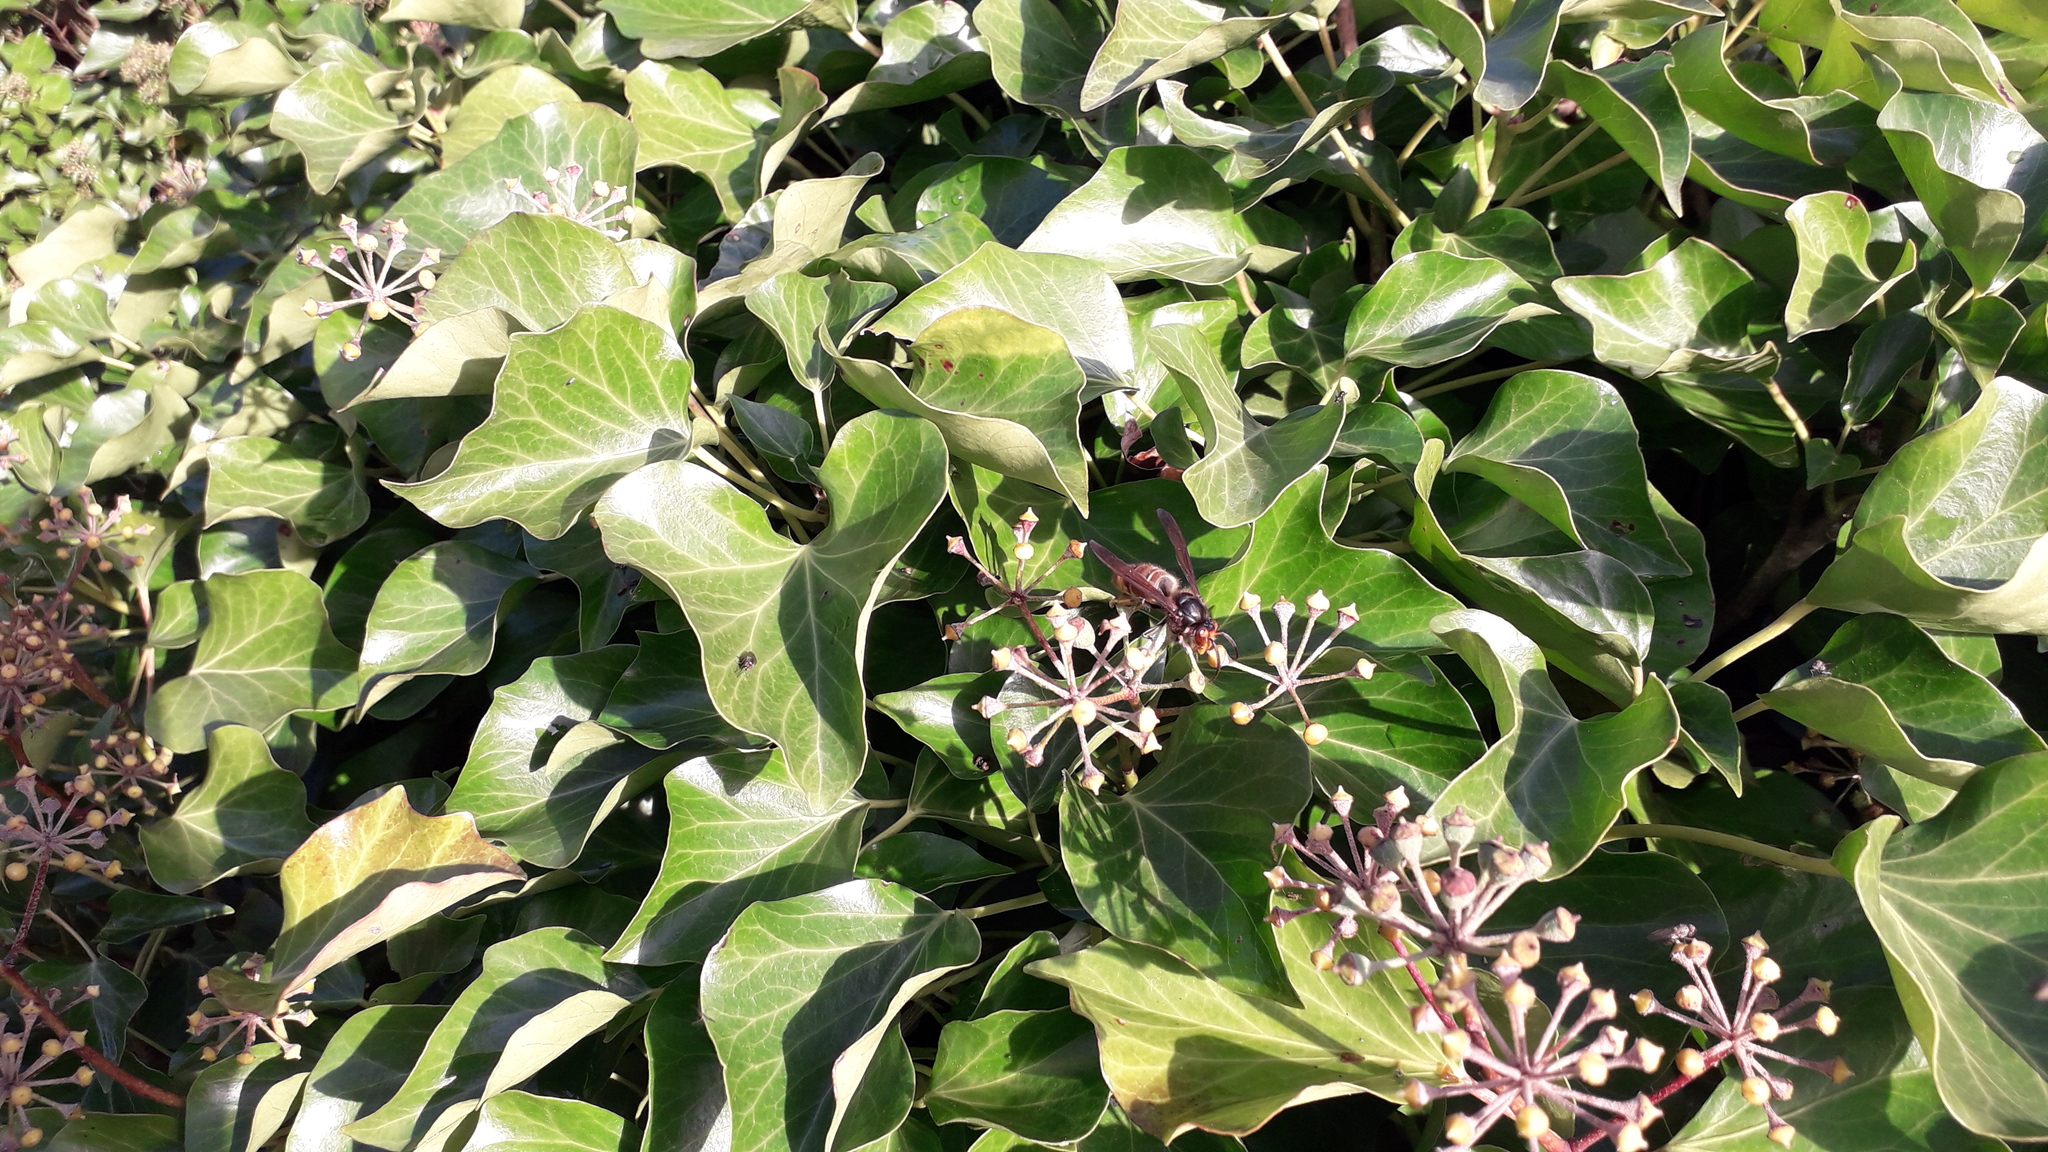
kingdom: Animalia
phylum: Arthropoda
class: Insecta
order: Hymenoptera
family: Vespidae
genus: Vespa
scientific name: Vespa velutina
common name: Asian hornet
